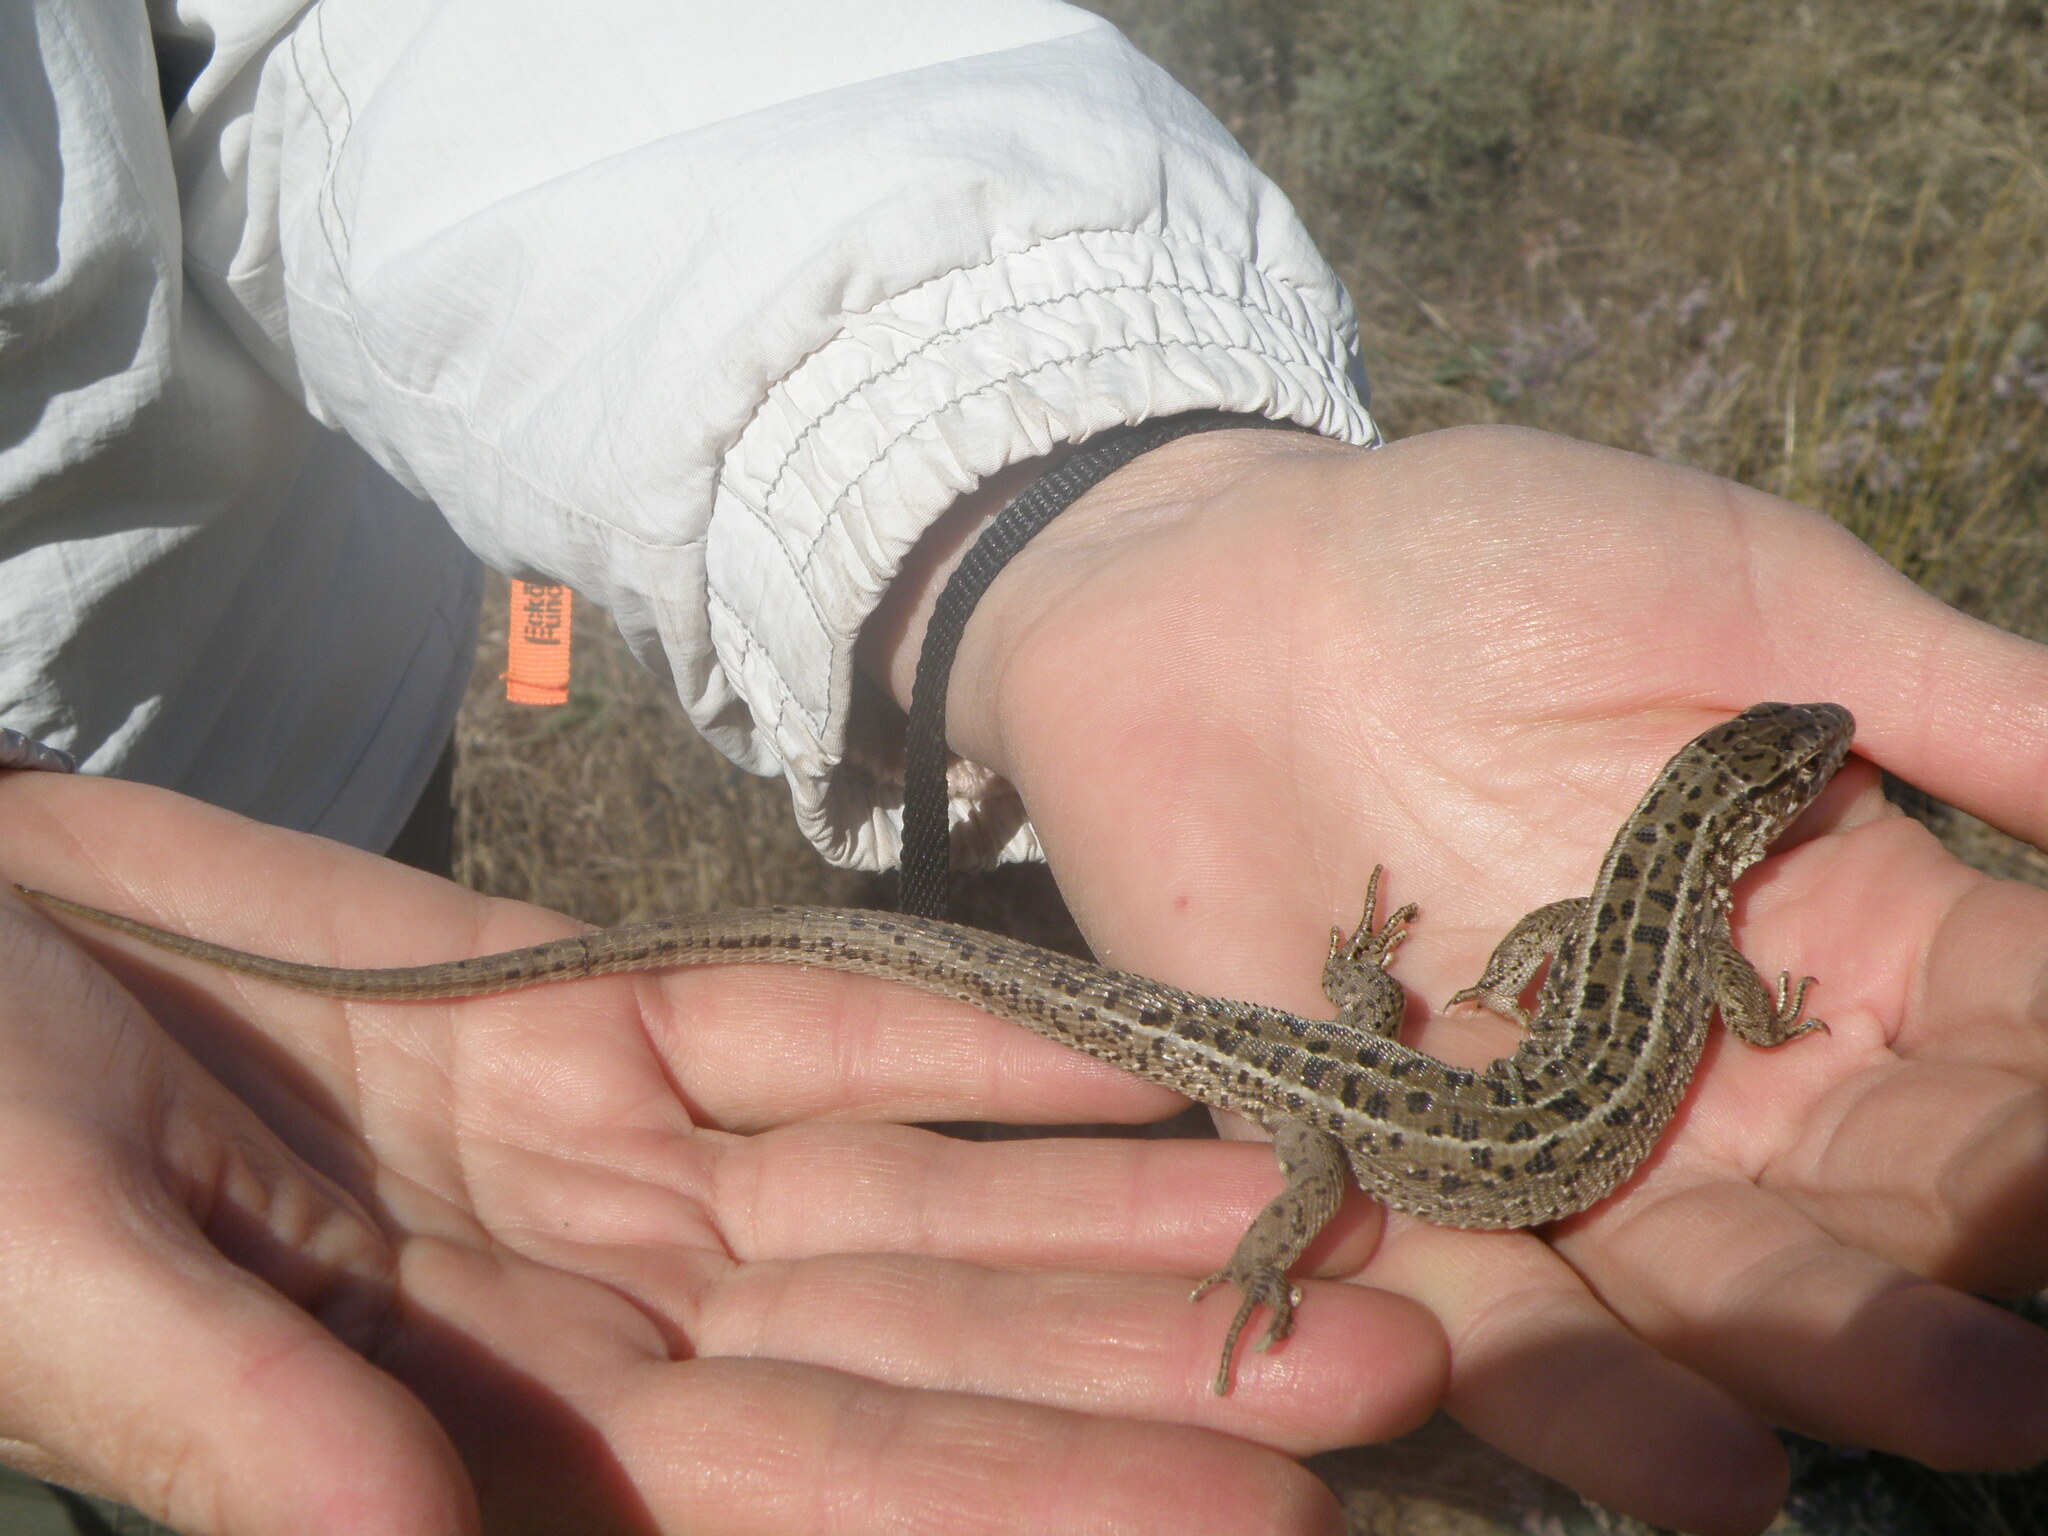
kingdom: Animalia
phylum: Chordata
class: Squamata
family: Lacertidae
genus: Lacerta
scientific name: Lacerta agilis
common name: Sand lizard
